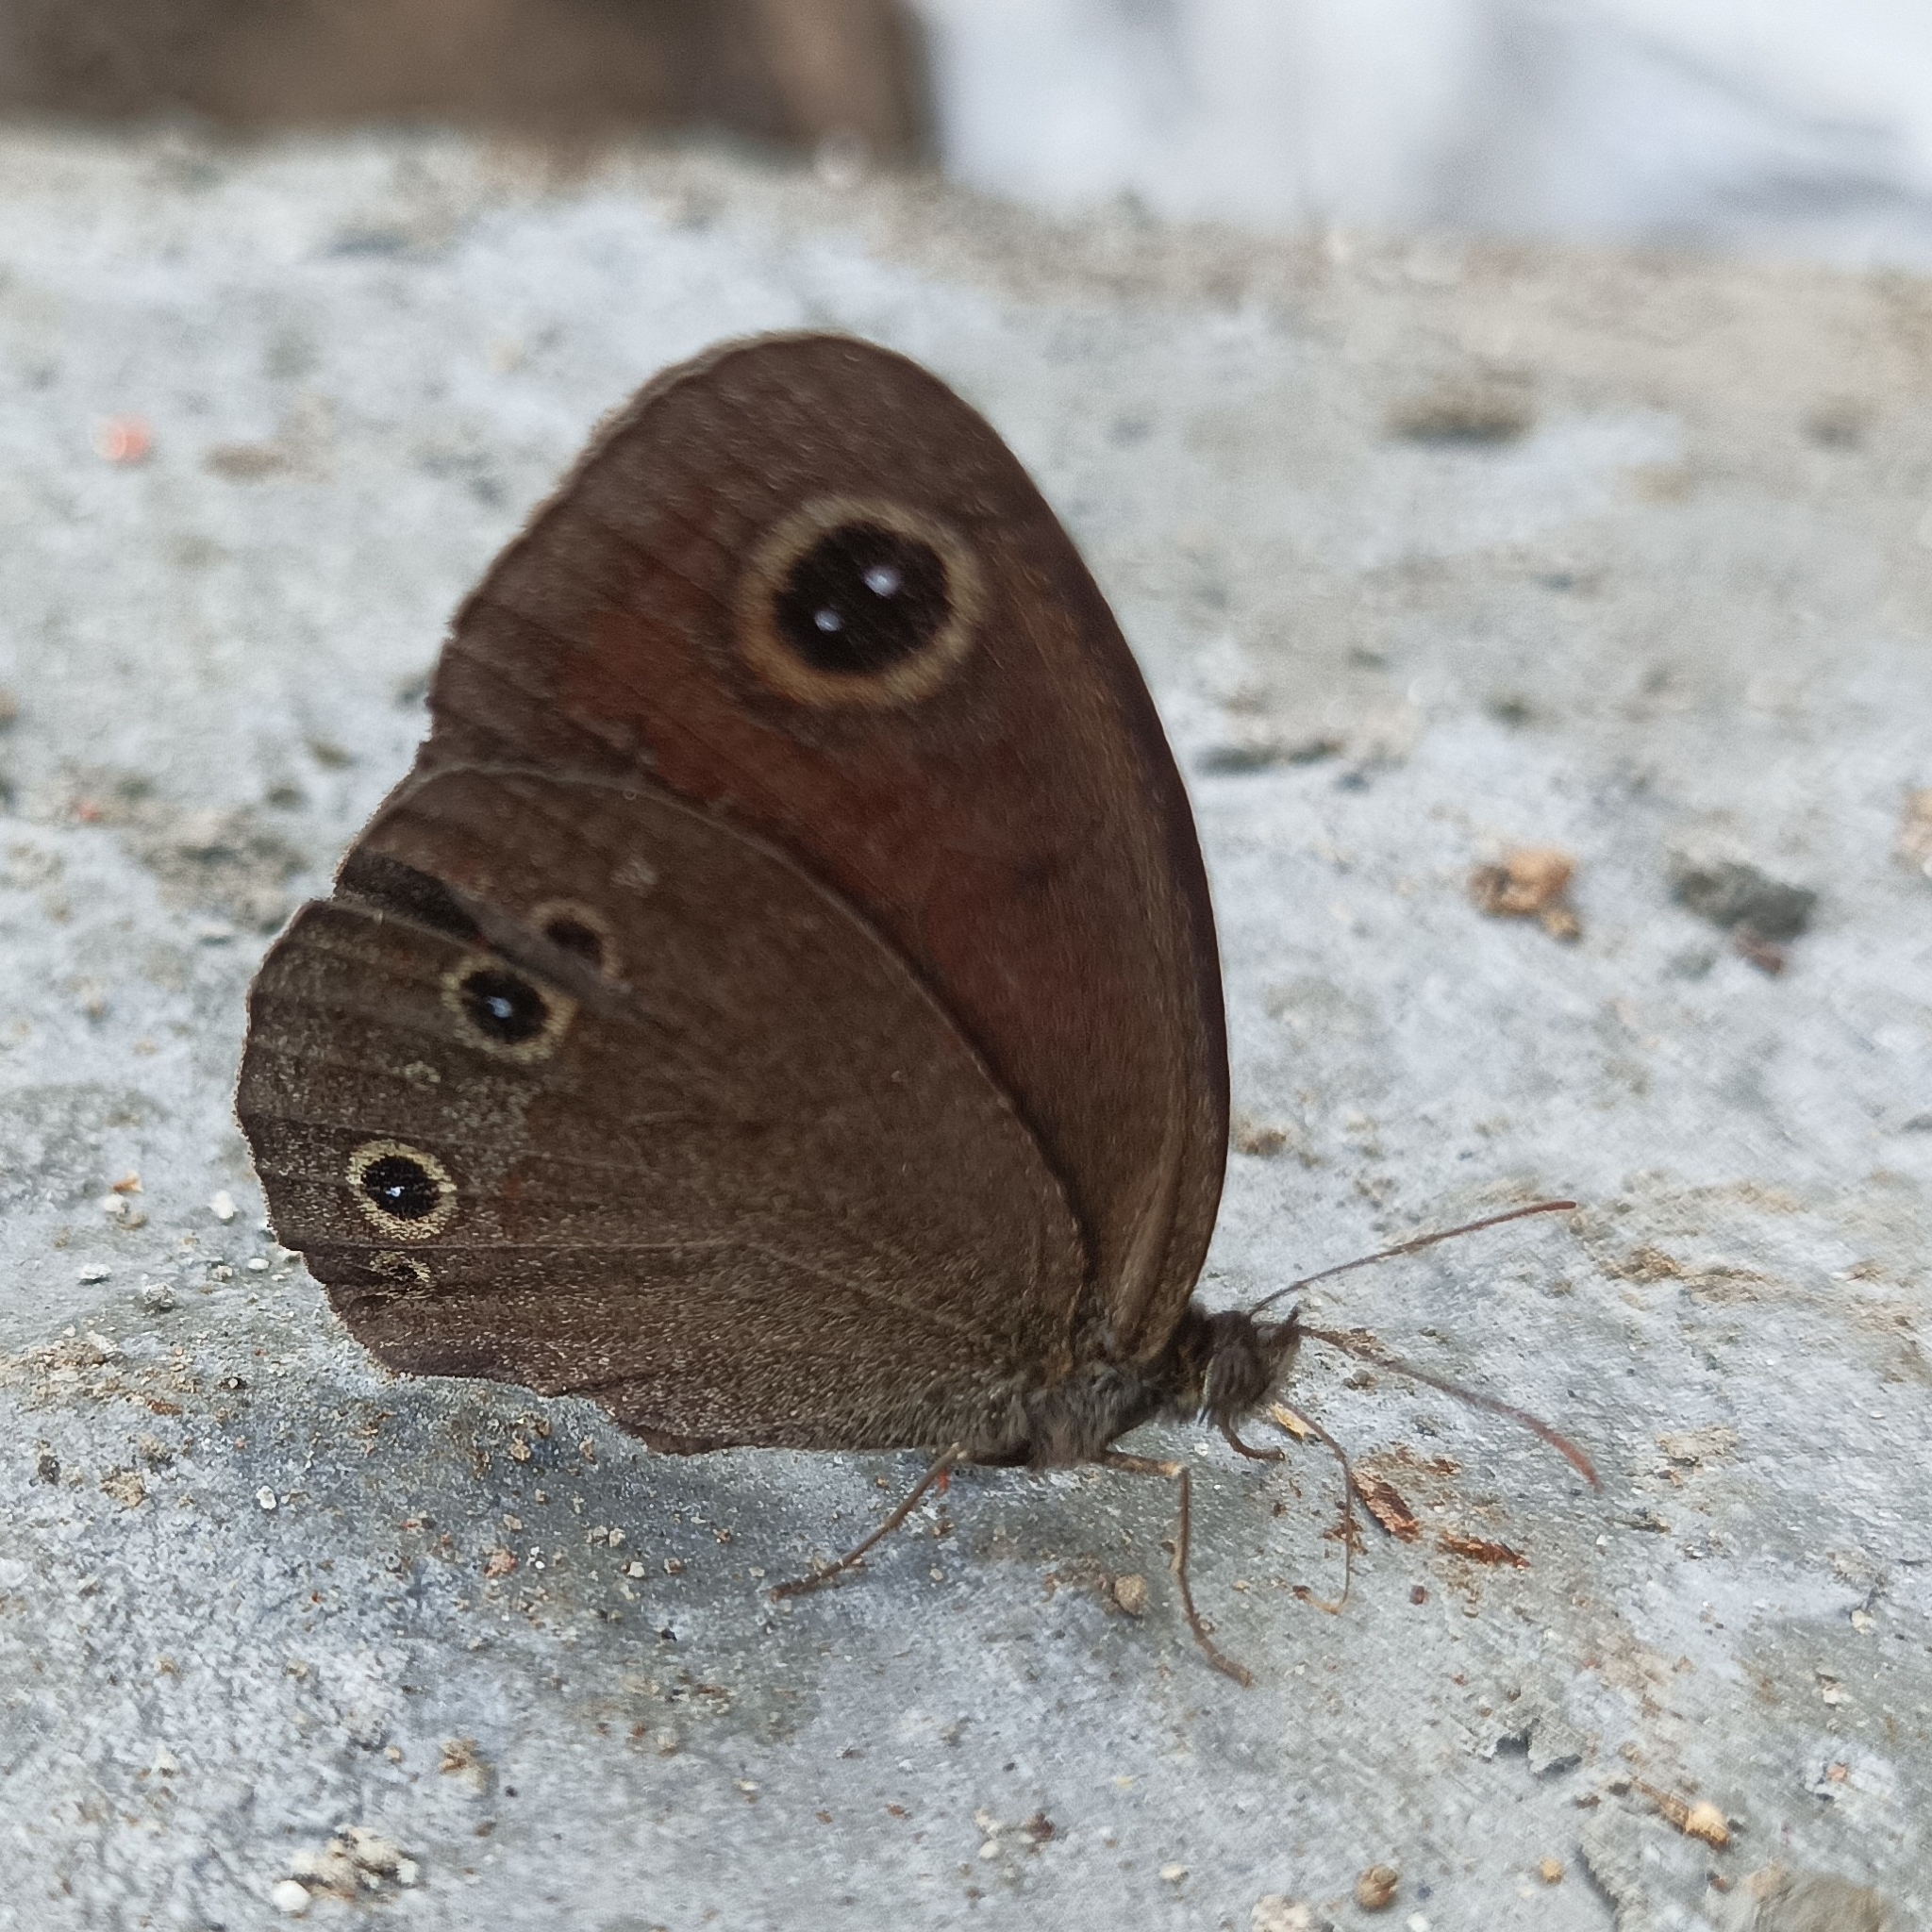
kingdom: Animalia
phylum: Arthropoda
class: Insecta
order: Lepidoptera
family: Nymphalidae
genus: Callerebia
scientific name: Callerebia nirmala
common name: Common argus
